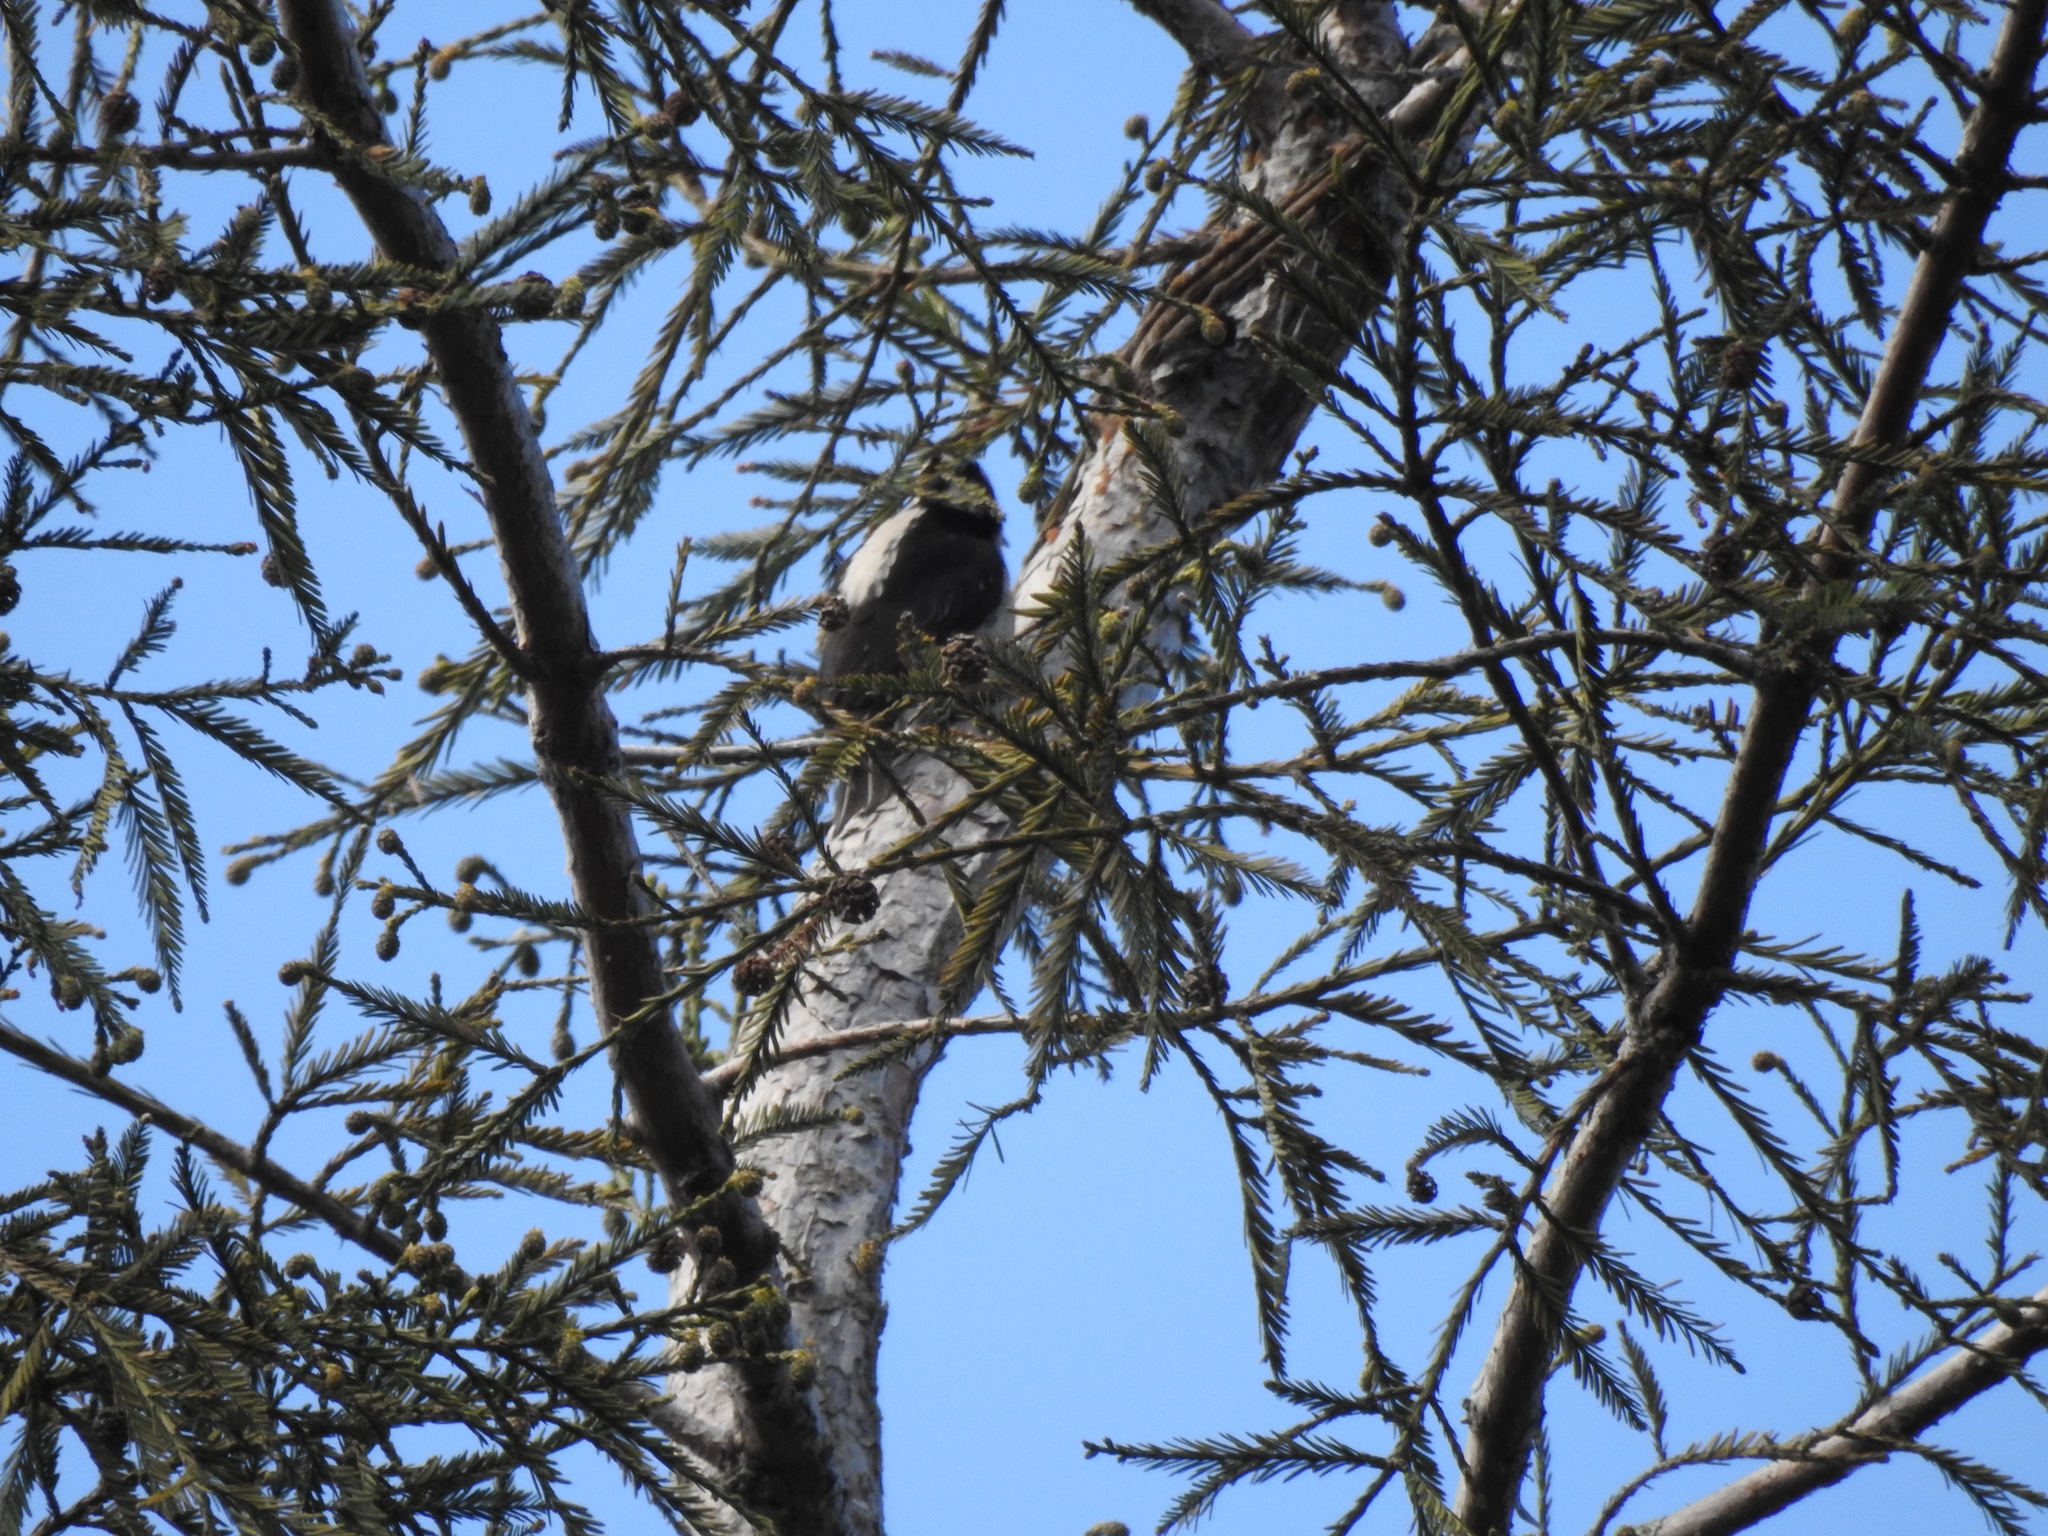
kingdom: Animalia
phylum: Chordata
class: Aves
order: Piciformes
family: Picidae
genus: Leuconotopicus
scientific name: Leuconotopicus villosus
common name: Hairy woodpecker
